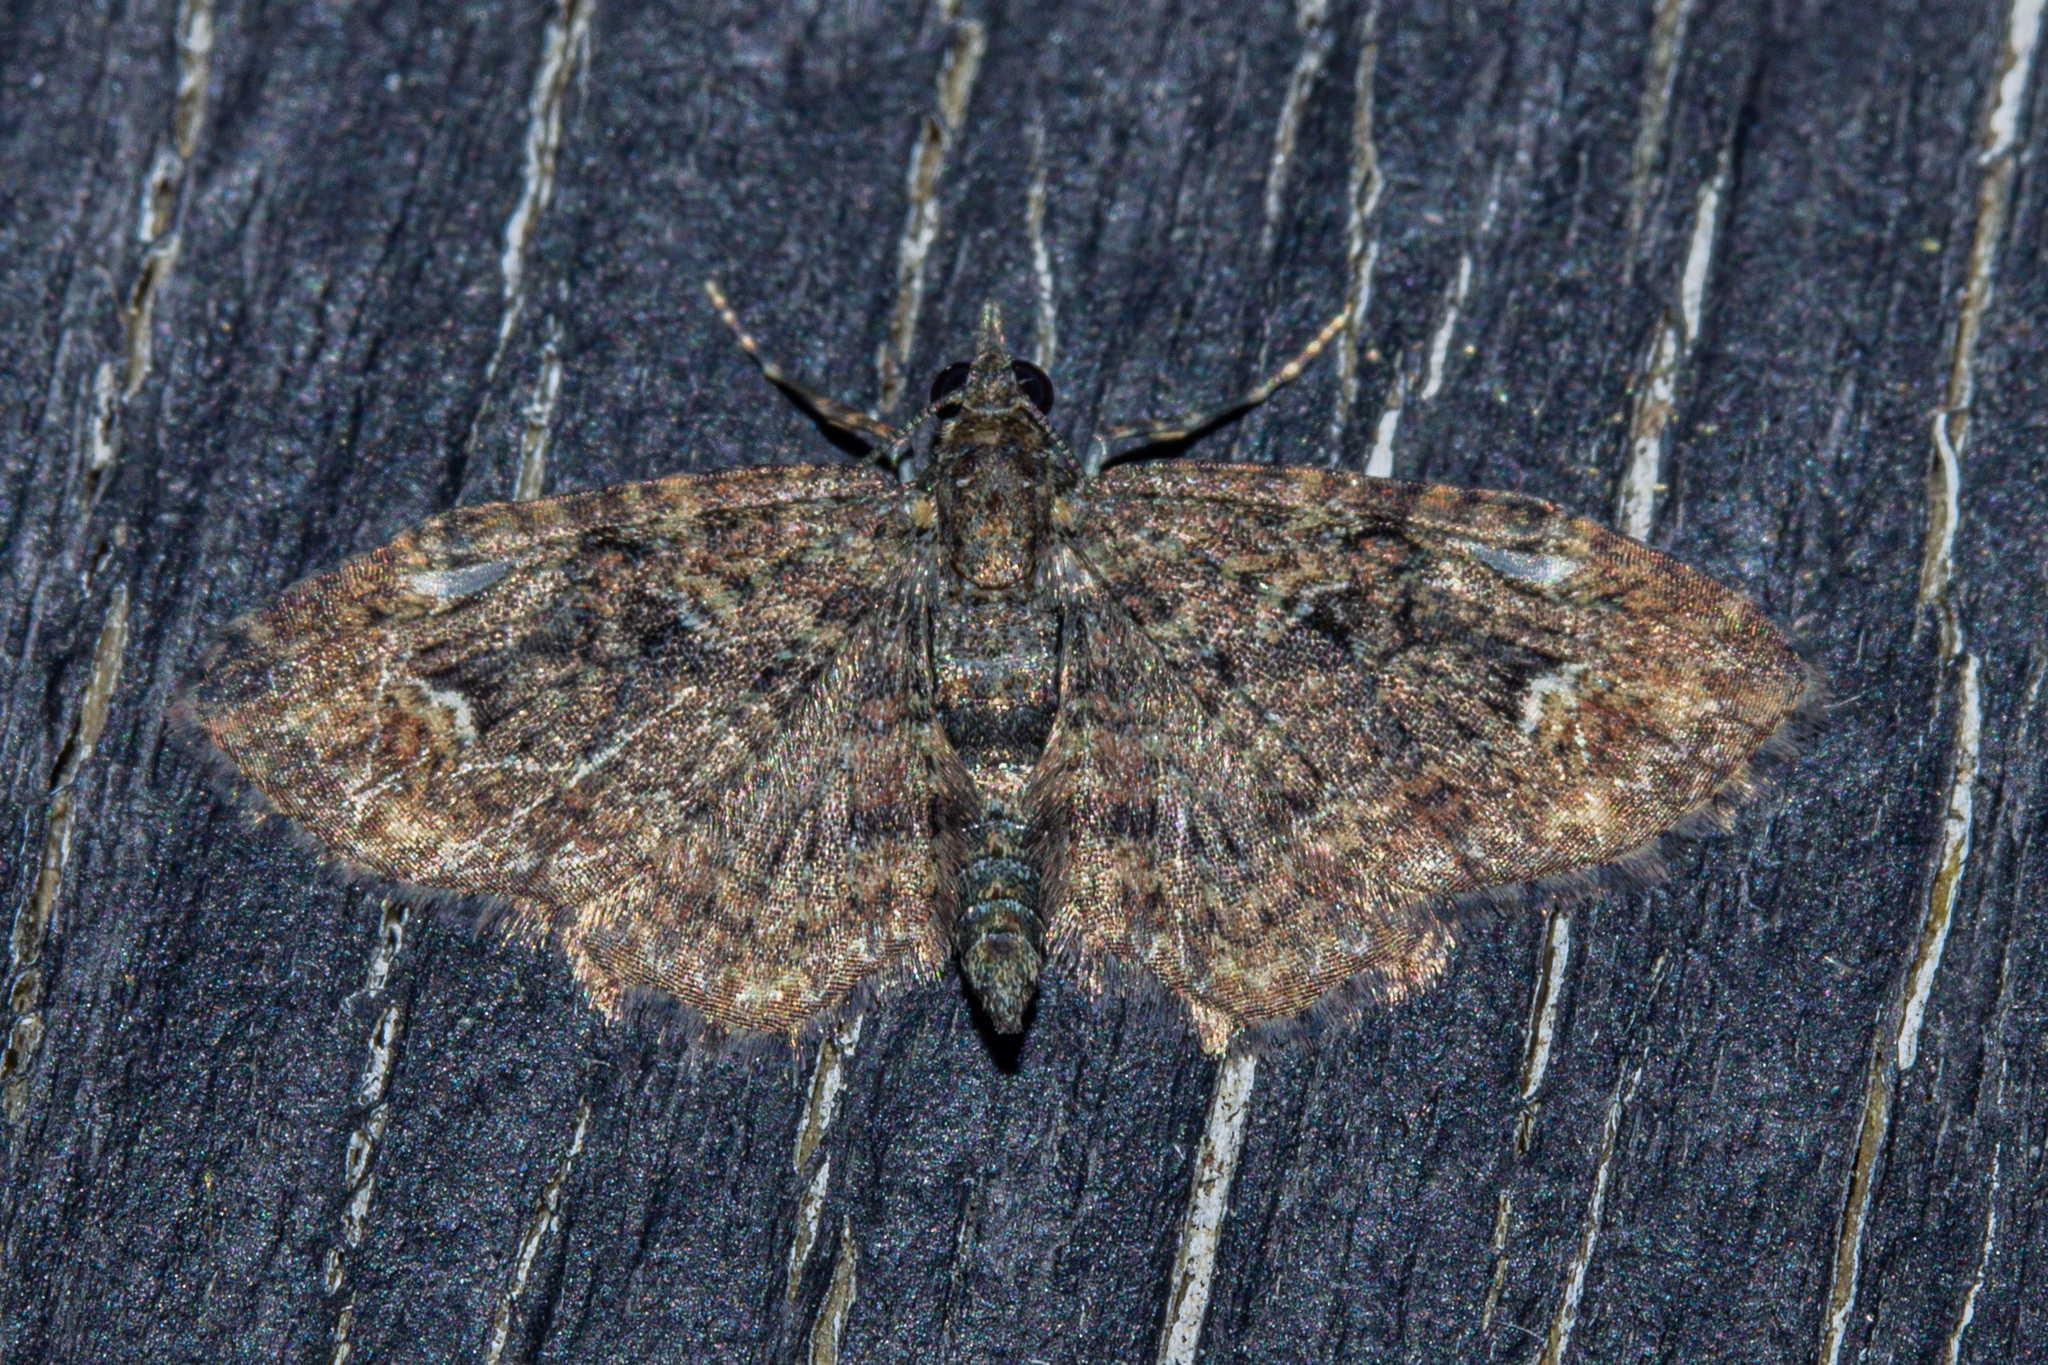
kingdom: Animalia
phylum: Arthropoda
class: Insecta
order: Lepidoptera
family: Geometridae
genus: Pasiphilodes
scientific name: Pasiphilodes testulata
